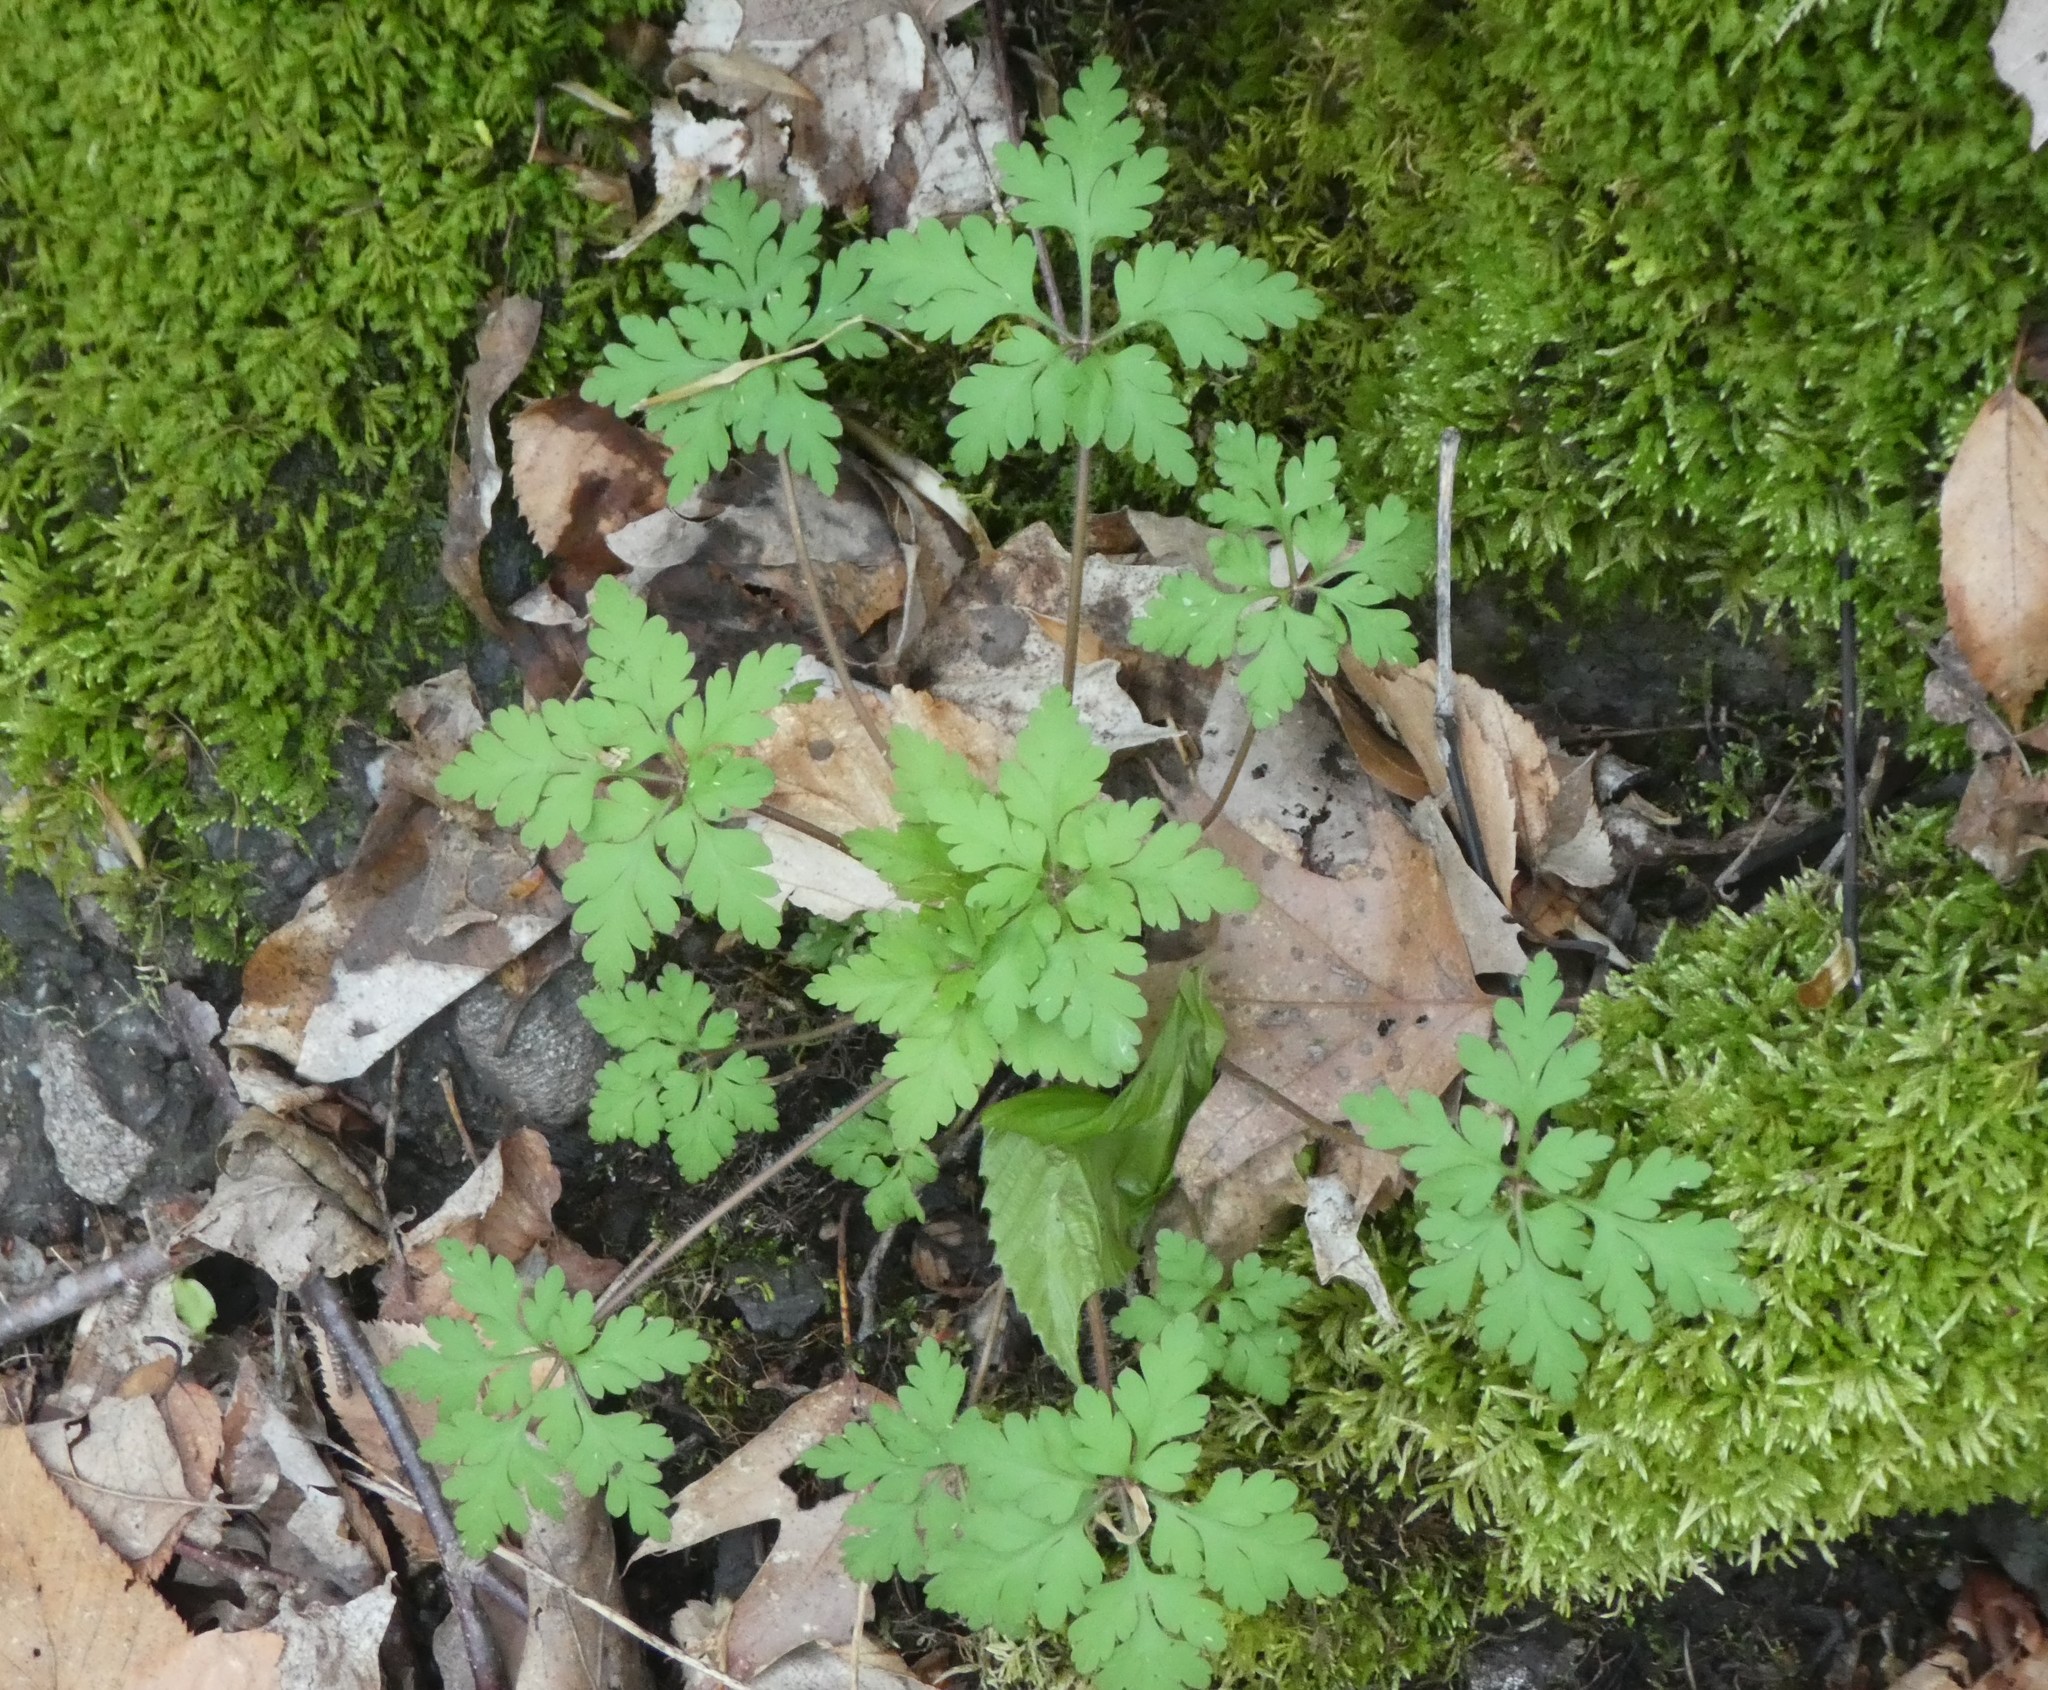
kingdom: Plantae
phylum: Tracheophyta
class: Magnoliopsida
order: Geraniales
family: Geraniaceae
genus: Geranium
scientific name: Geranium robertianum
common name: Herb-robert
